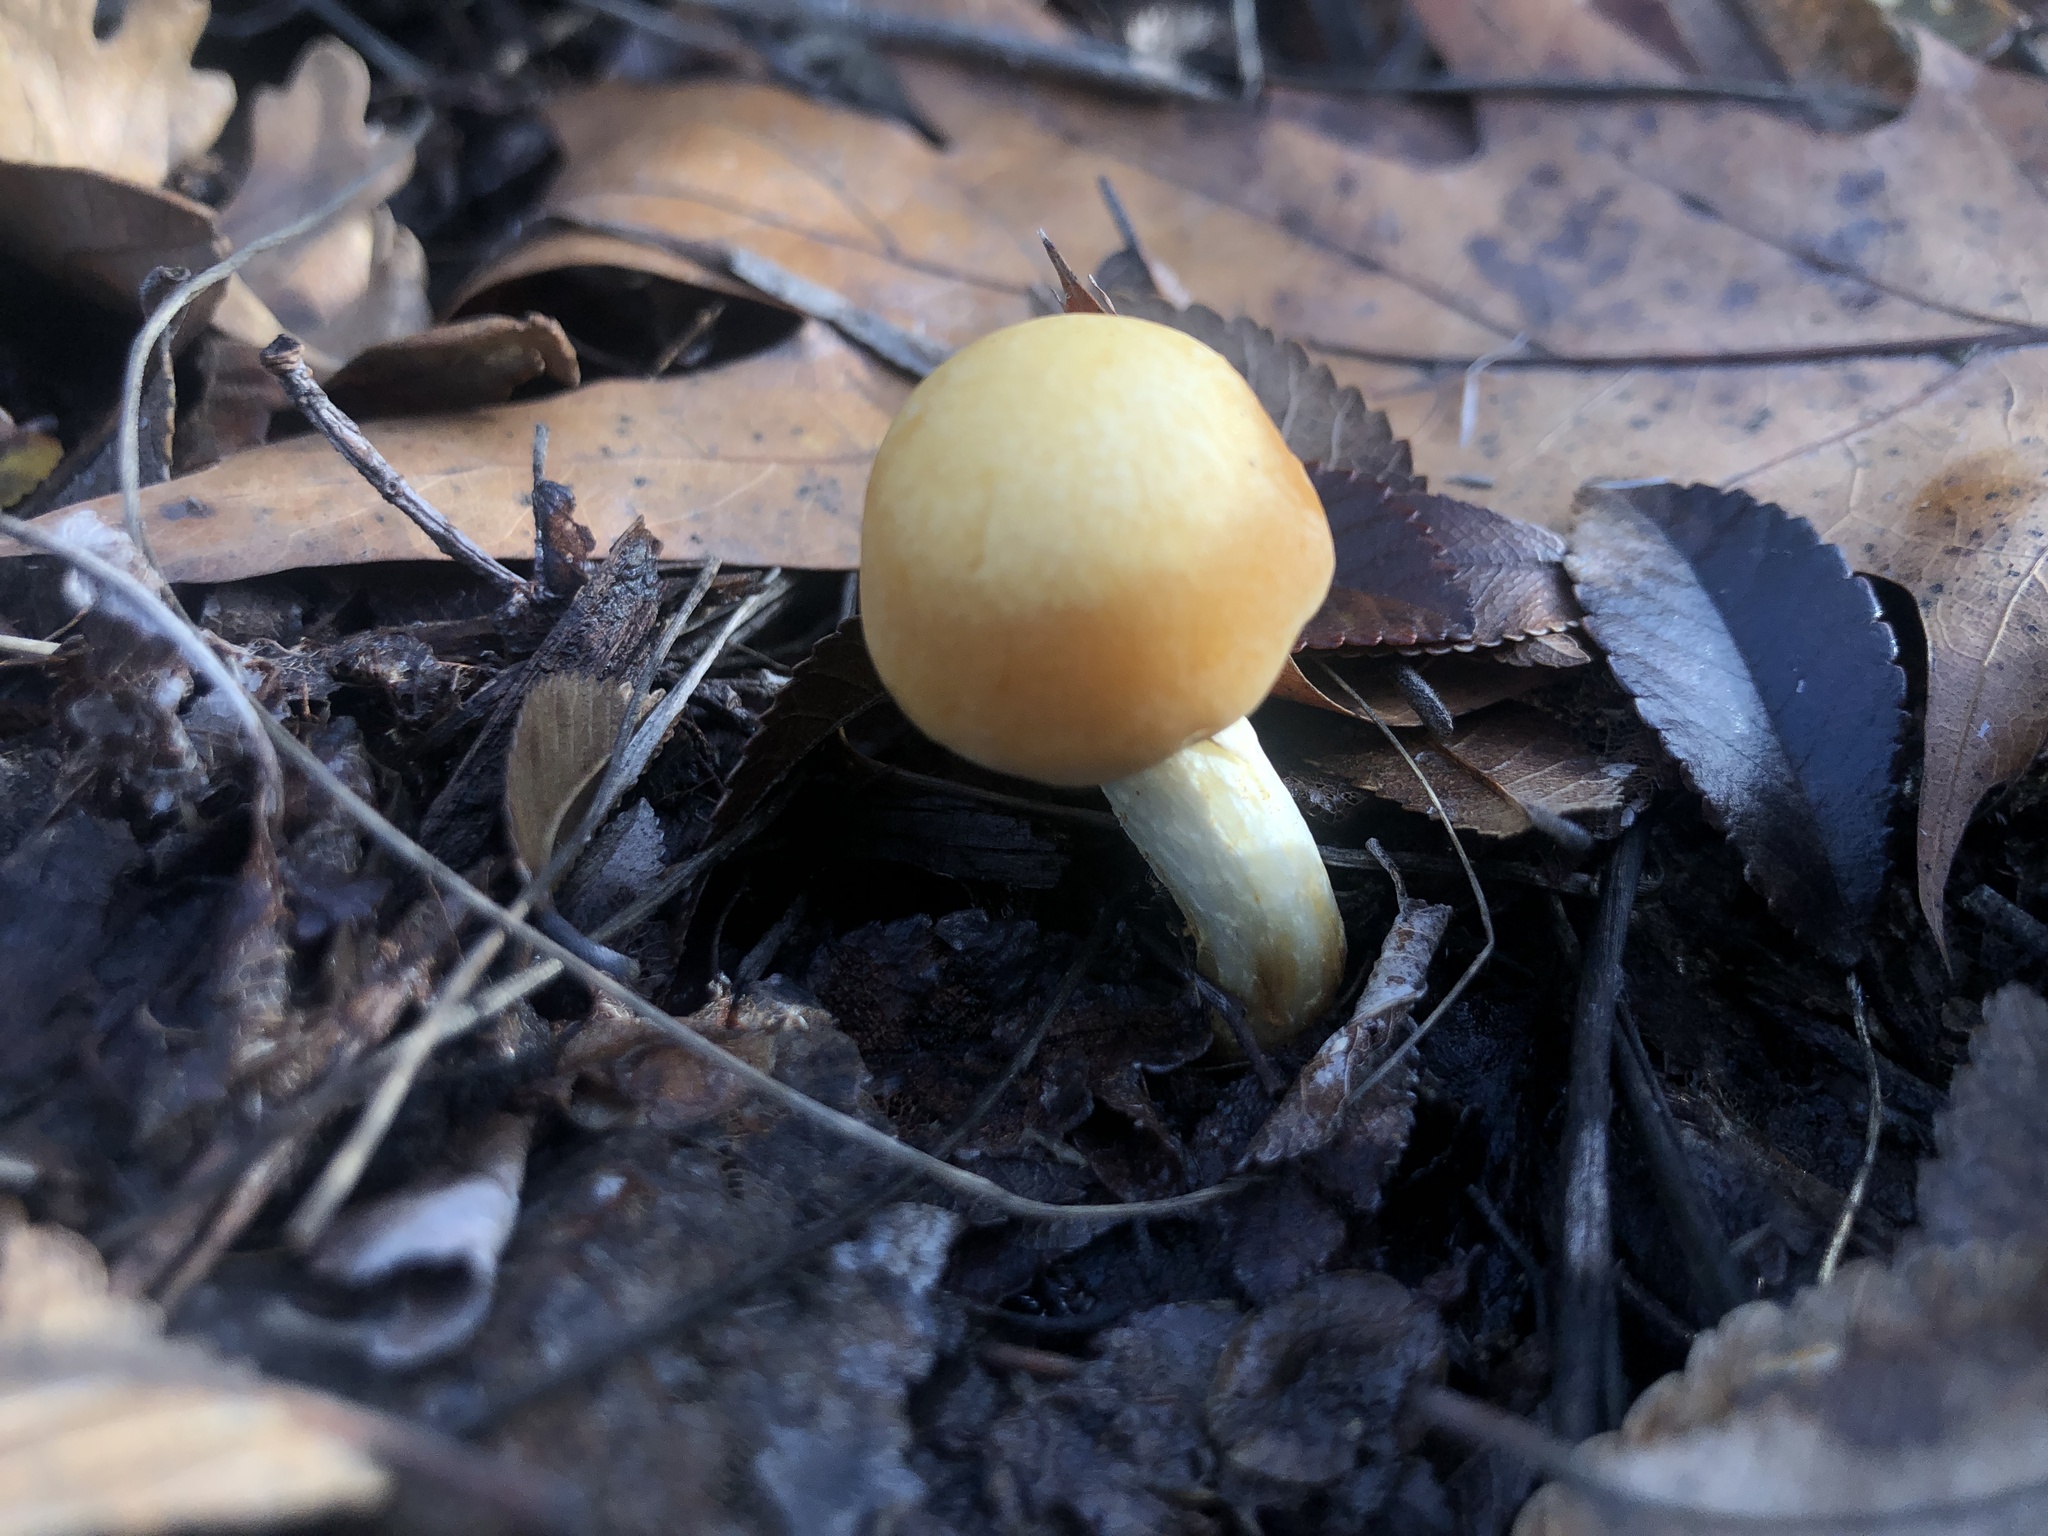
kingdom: Fungi
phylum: Basidiomycota
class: Agaricomycetes
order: Agaricales
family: Strophariaceae
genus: Leratiomyces
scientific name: Leratiomyces percevalii
